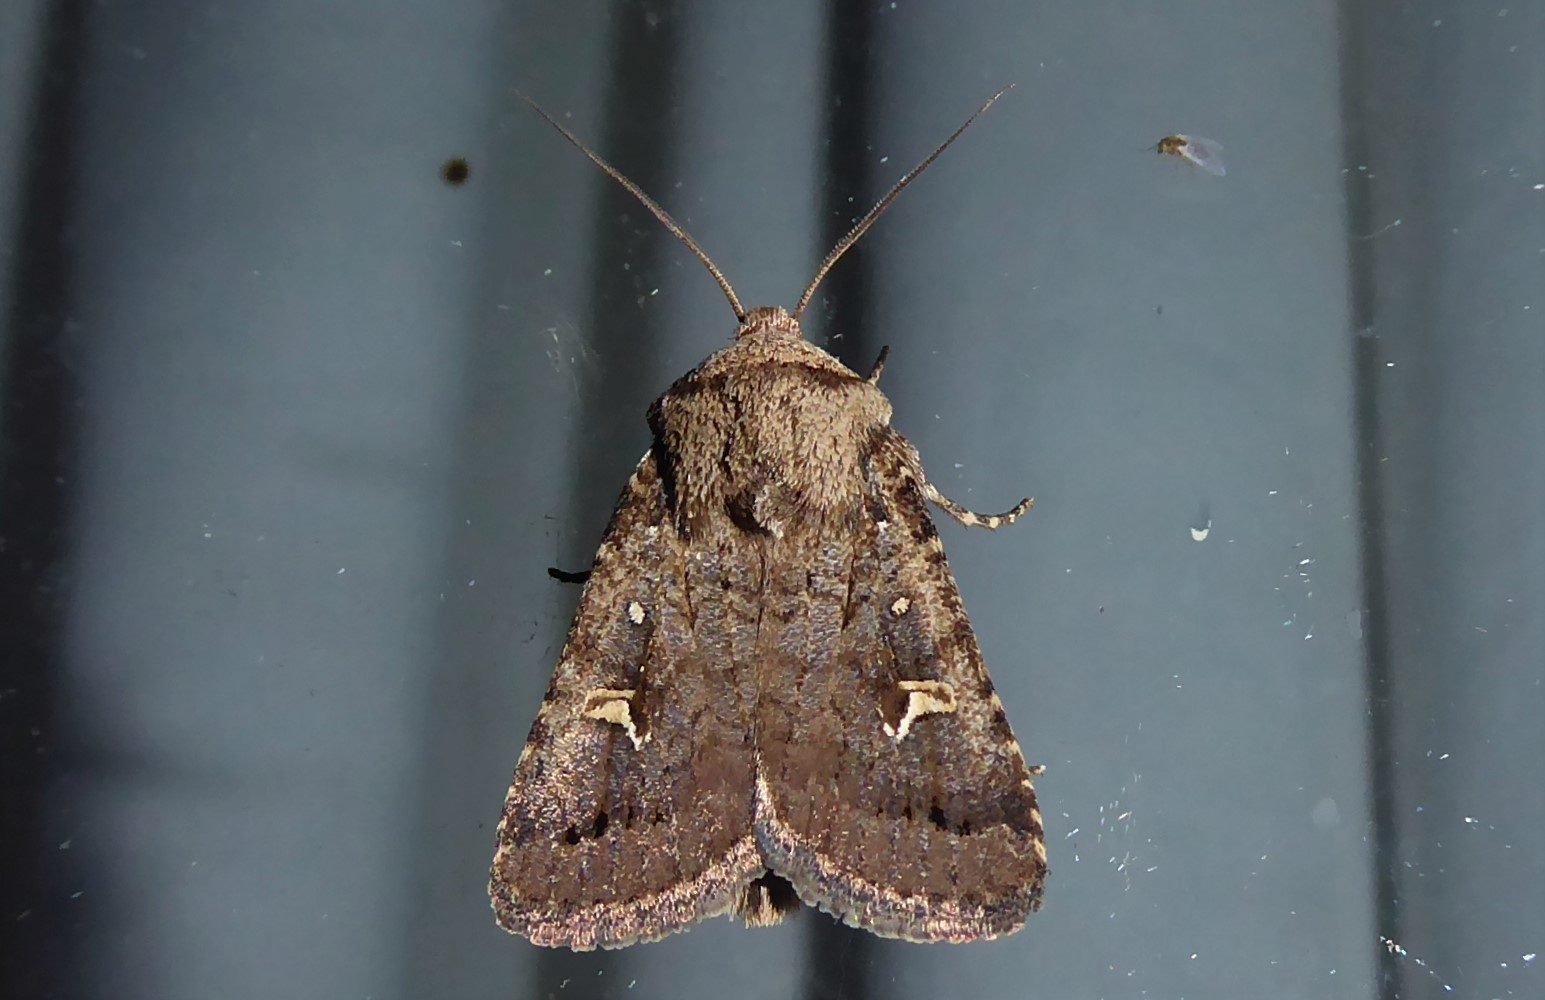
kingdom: Animalia
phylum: Arthropoda
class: Insecta
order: Lepidoptera
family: Noctuidae
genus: Proteuxoa
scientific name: Proteuxoa tetronycha
